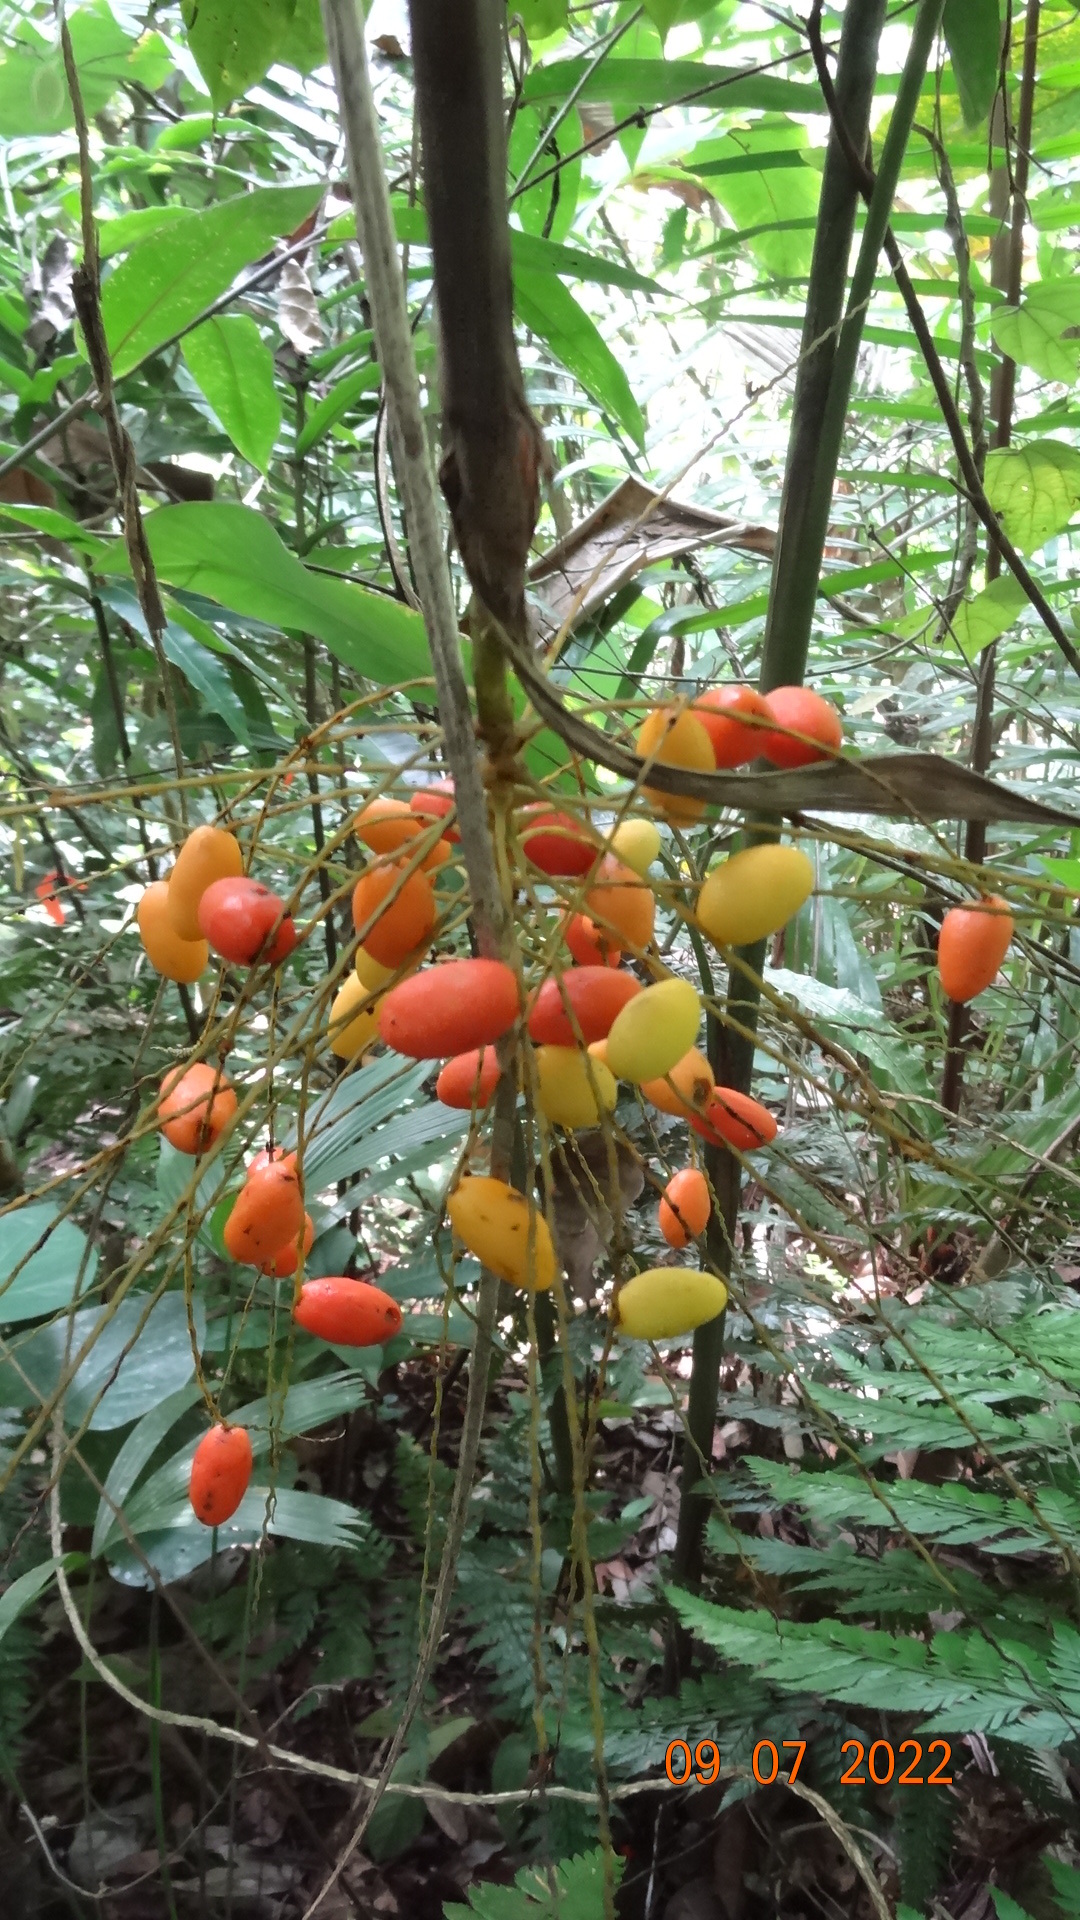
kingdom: Plantae
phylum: Tracheophyta
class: Liliopsida
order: Arecales
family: Arecaceae
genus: Synechanthus
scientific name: Synechanthus warscewiczianus
